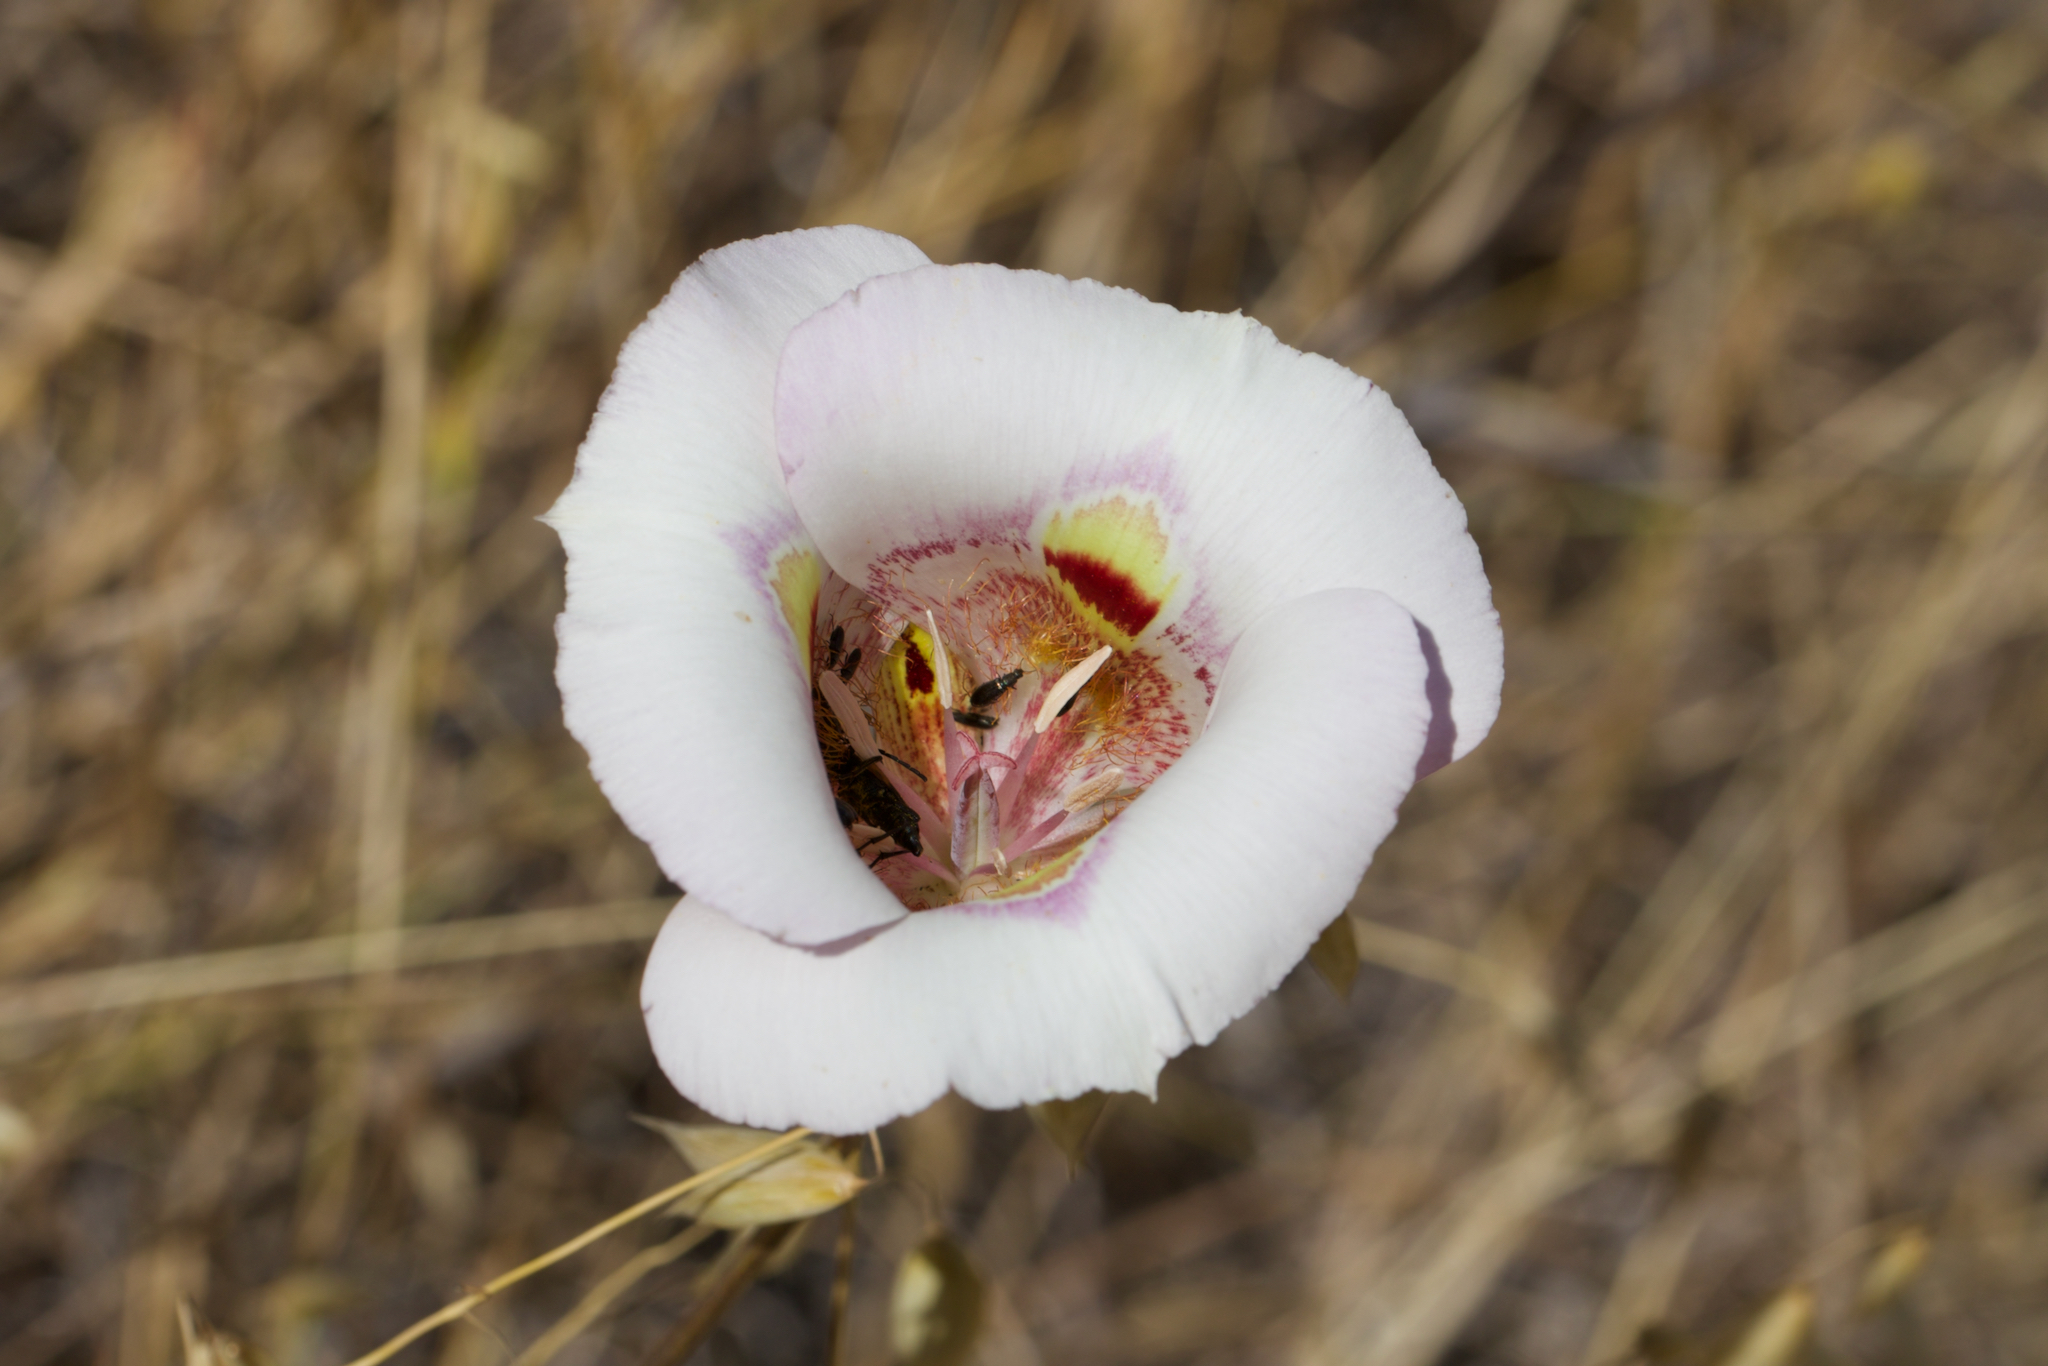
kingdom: Plantae
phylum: Tracheophyta
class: Liliopsida
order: Liliales
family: Liliaceae
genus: Calochortus
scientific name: Calochortus argillosus
